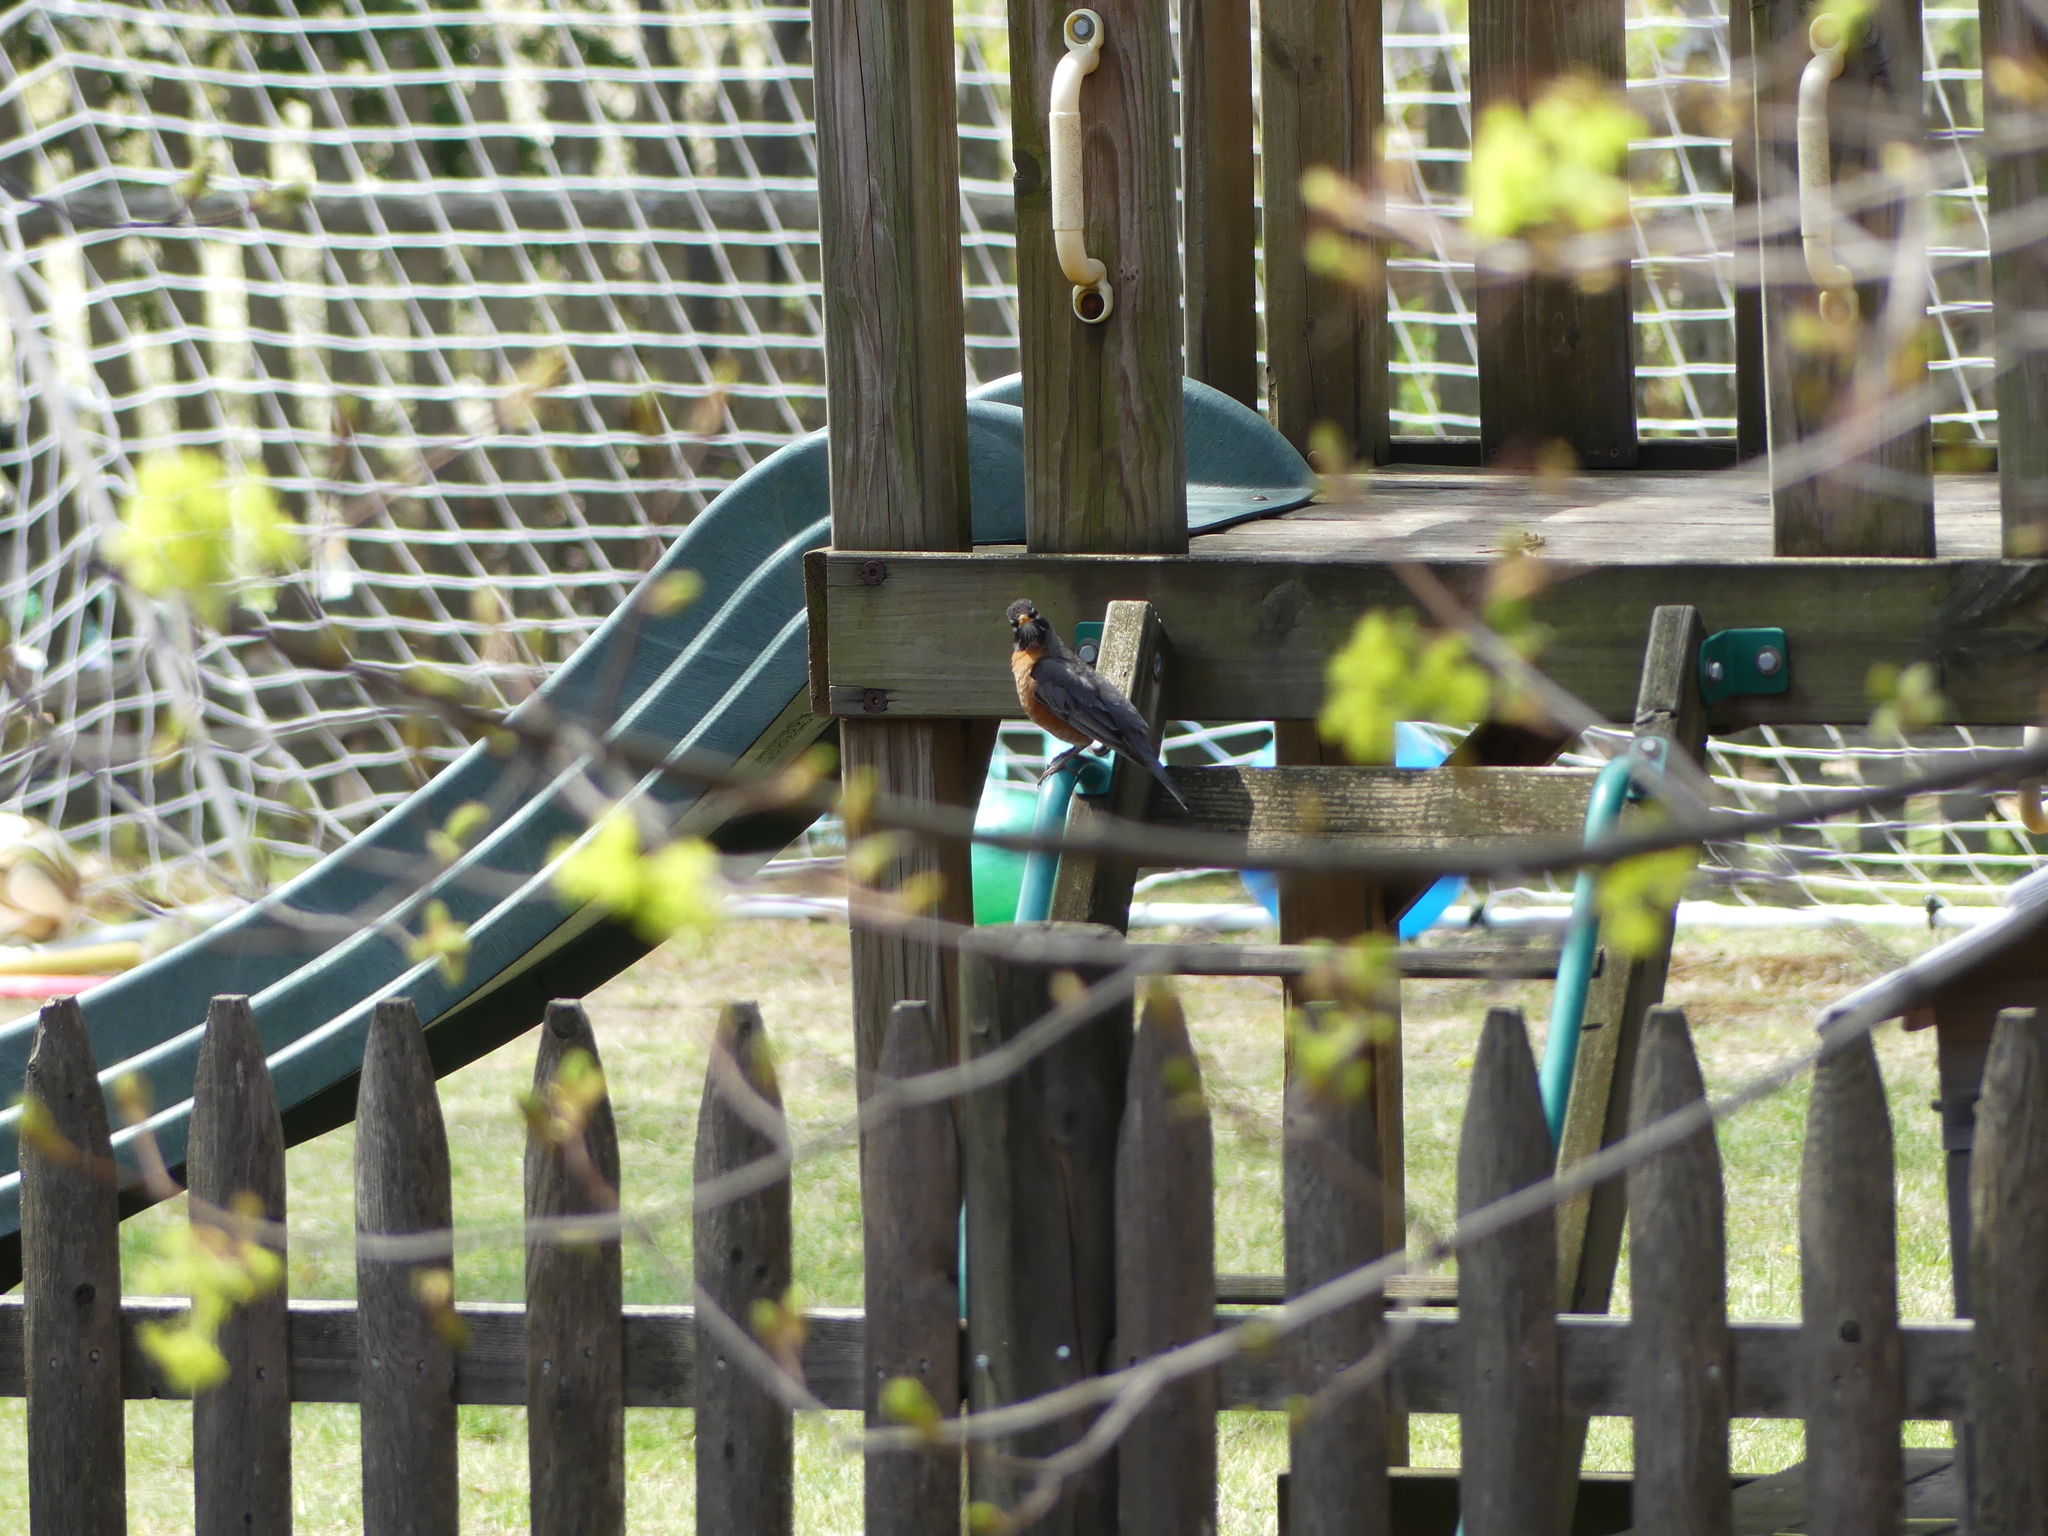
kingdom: Animalia
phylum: Chordata
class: Aves
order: Passeriformes
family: Turdidae
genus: Turdus
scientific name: Turdus migratorius
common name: American robin
